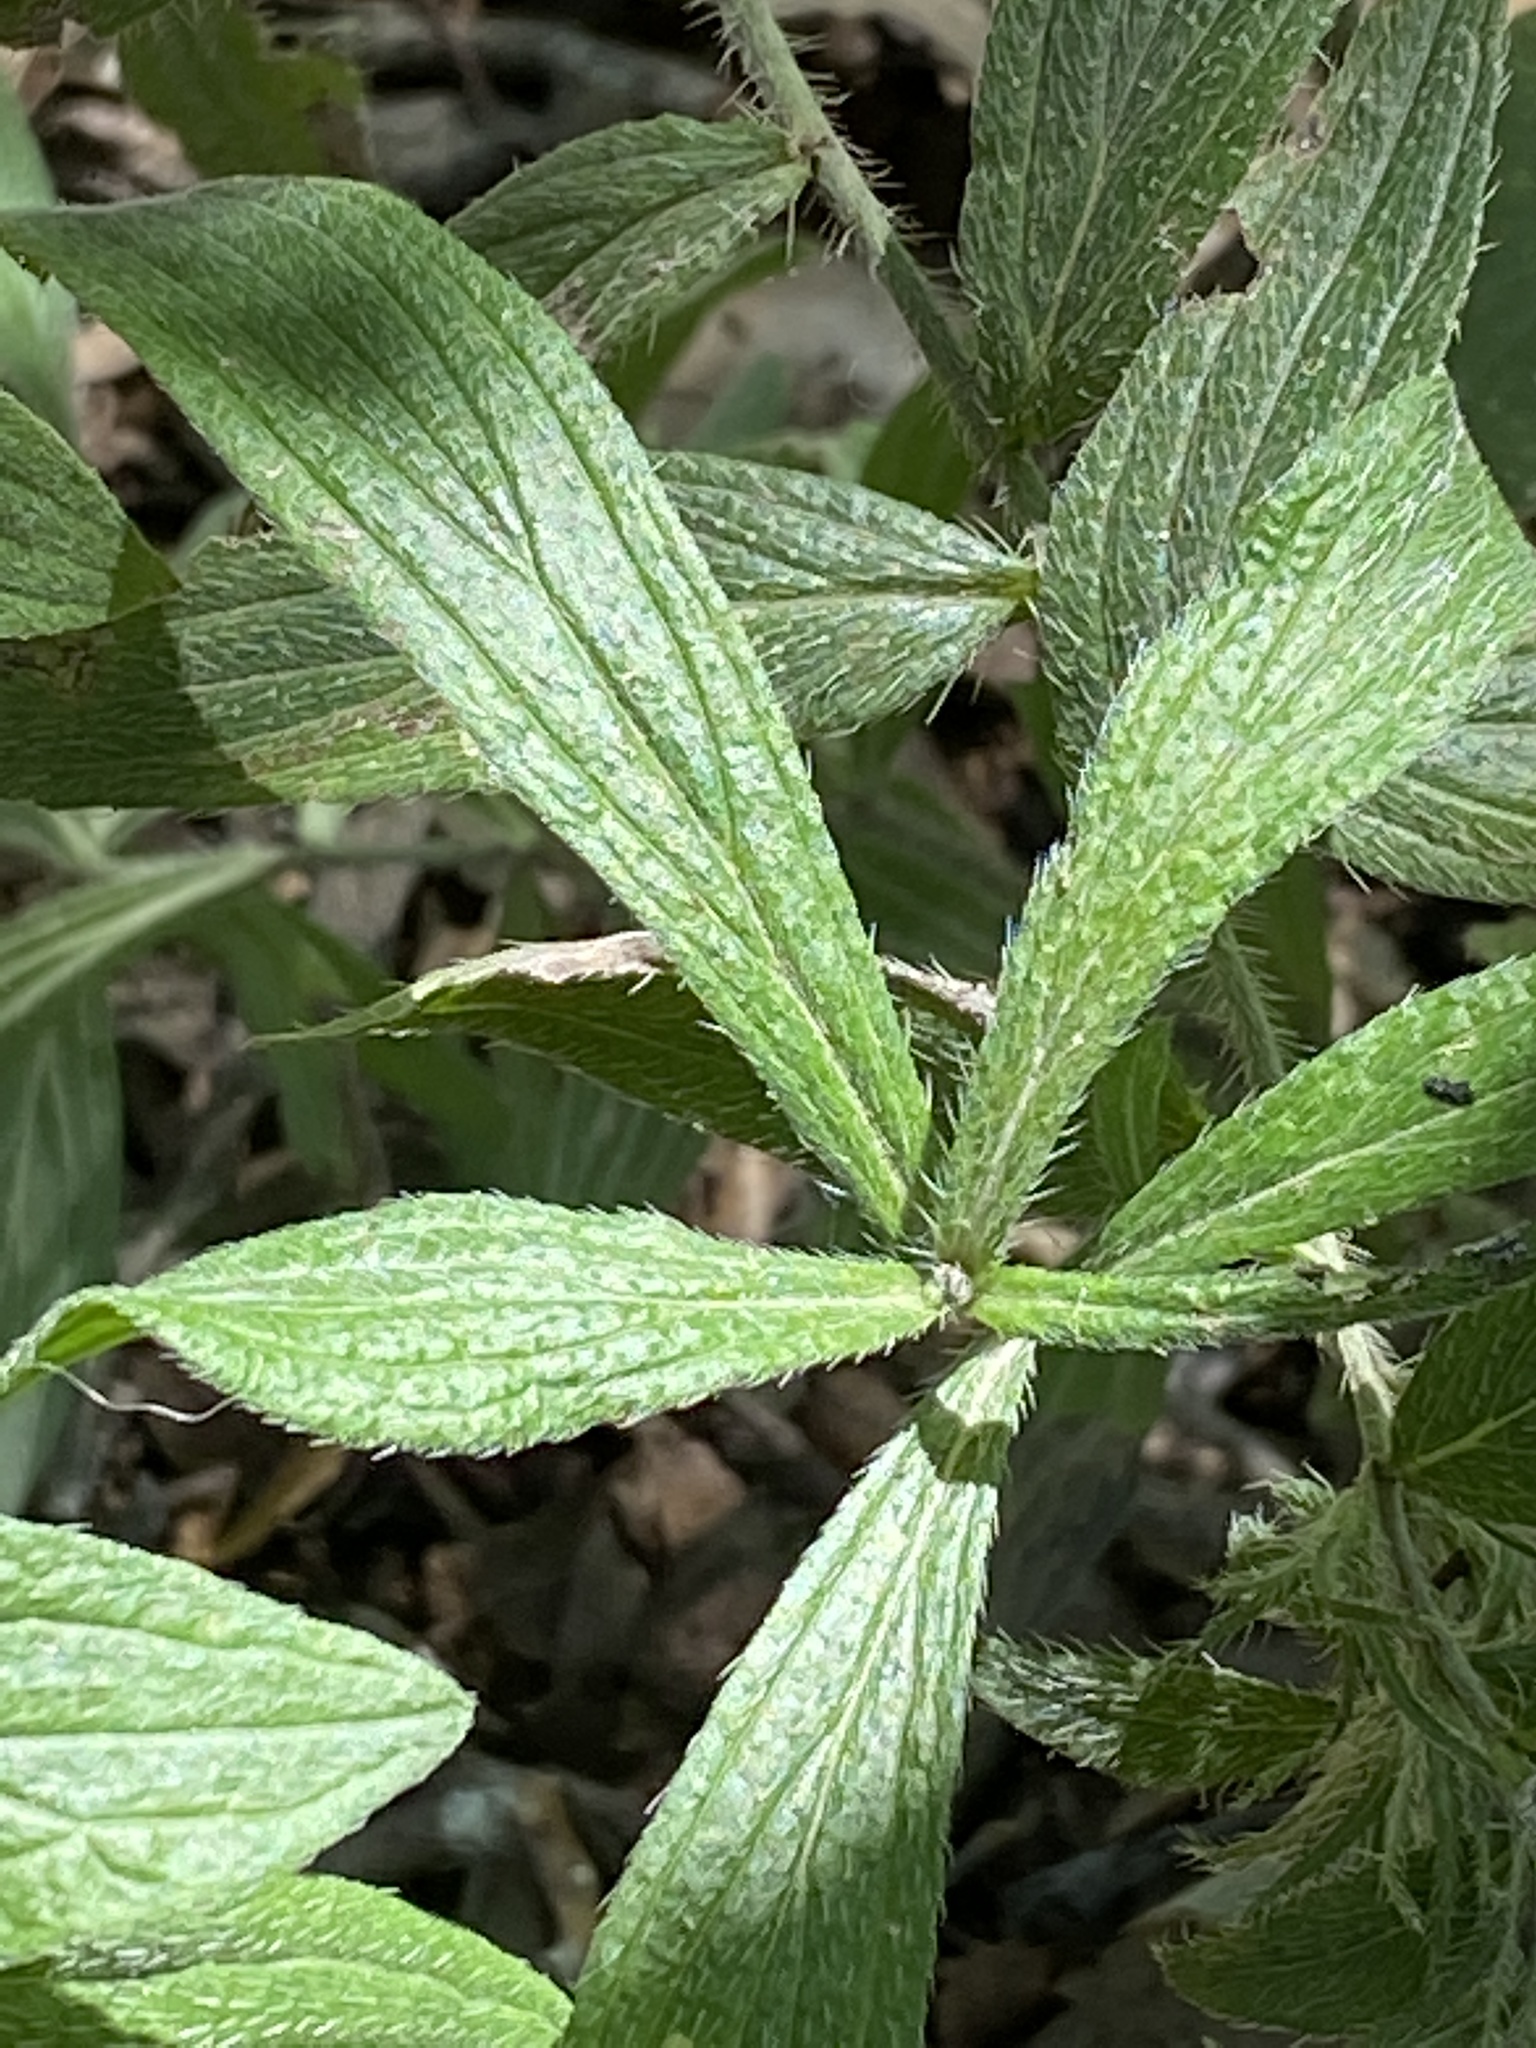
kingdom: Plantae
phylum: Tracheophyta
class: Magnoliopsida
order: Boraginales
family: Boraginaceae
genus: Lithospermum
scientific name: Lithospermum caroliniense
